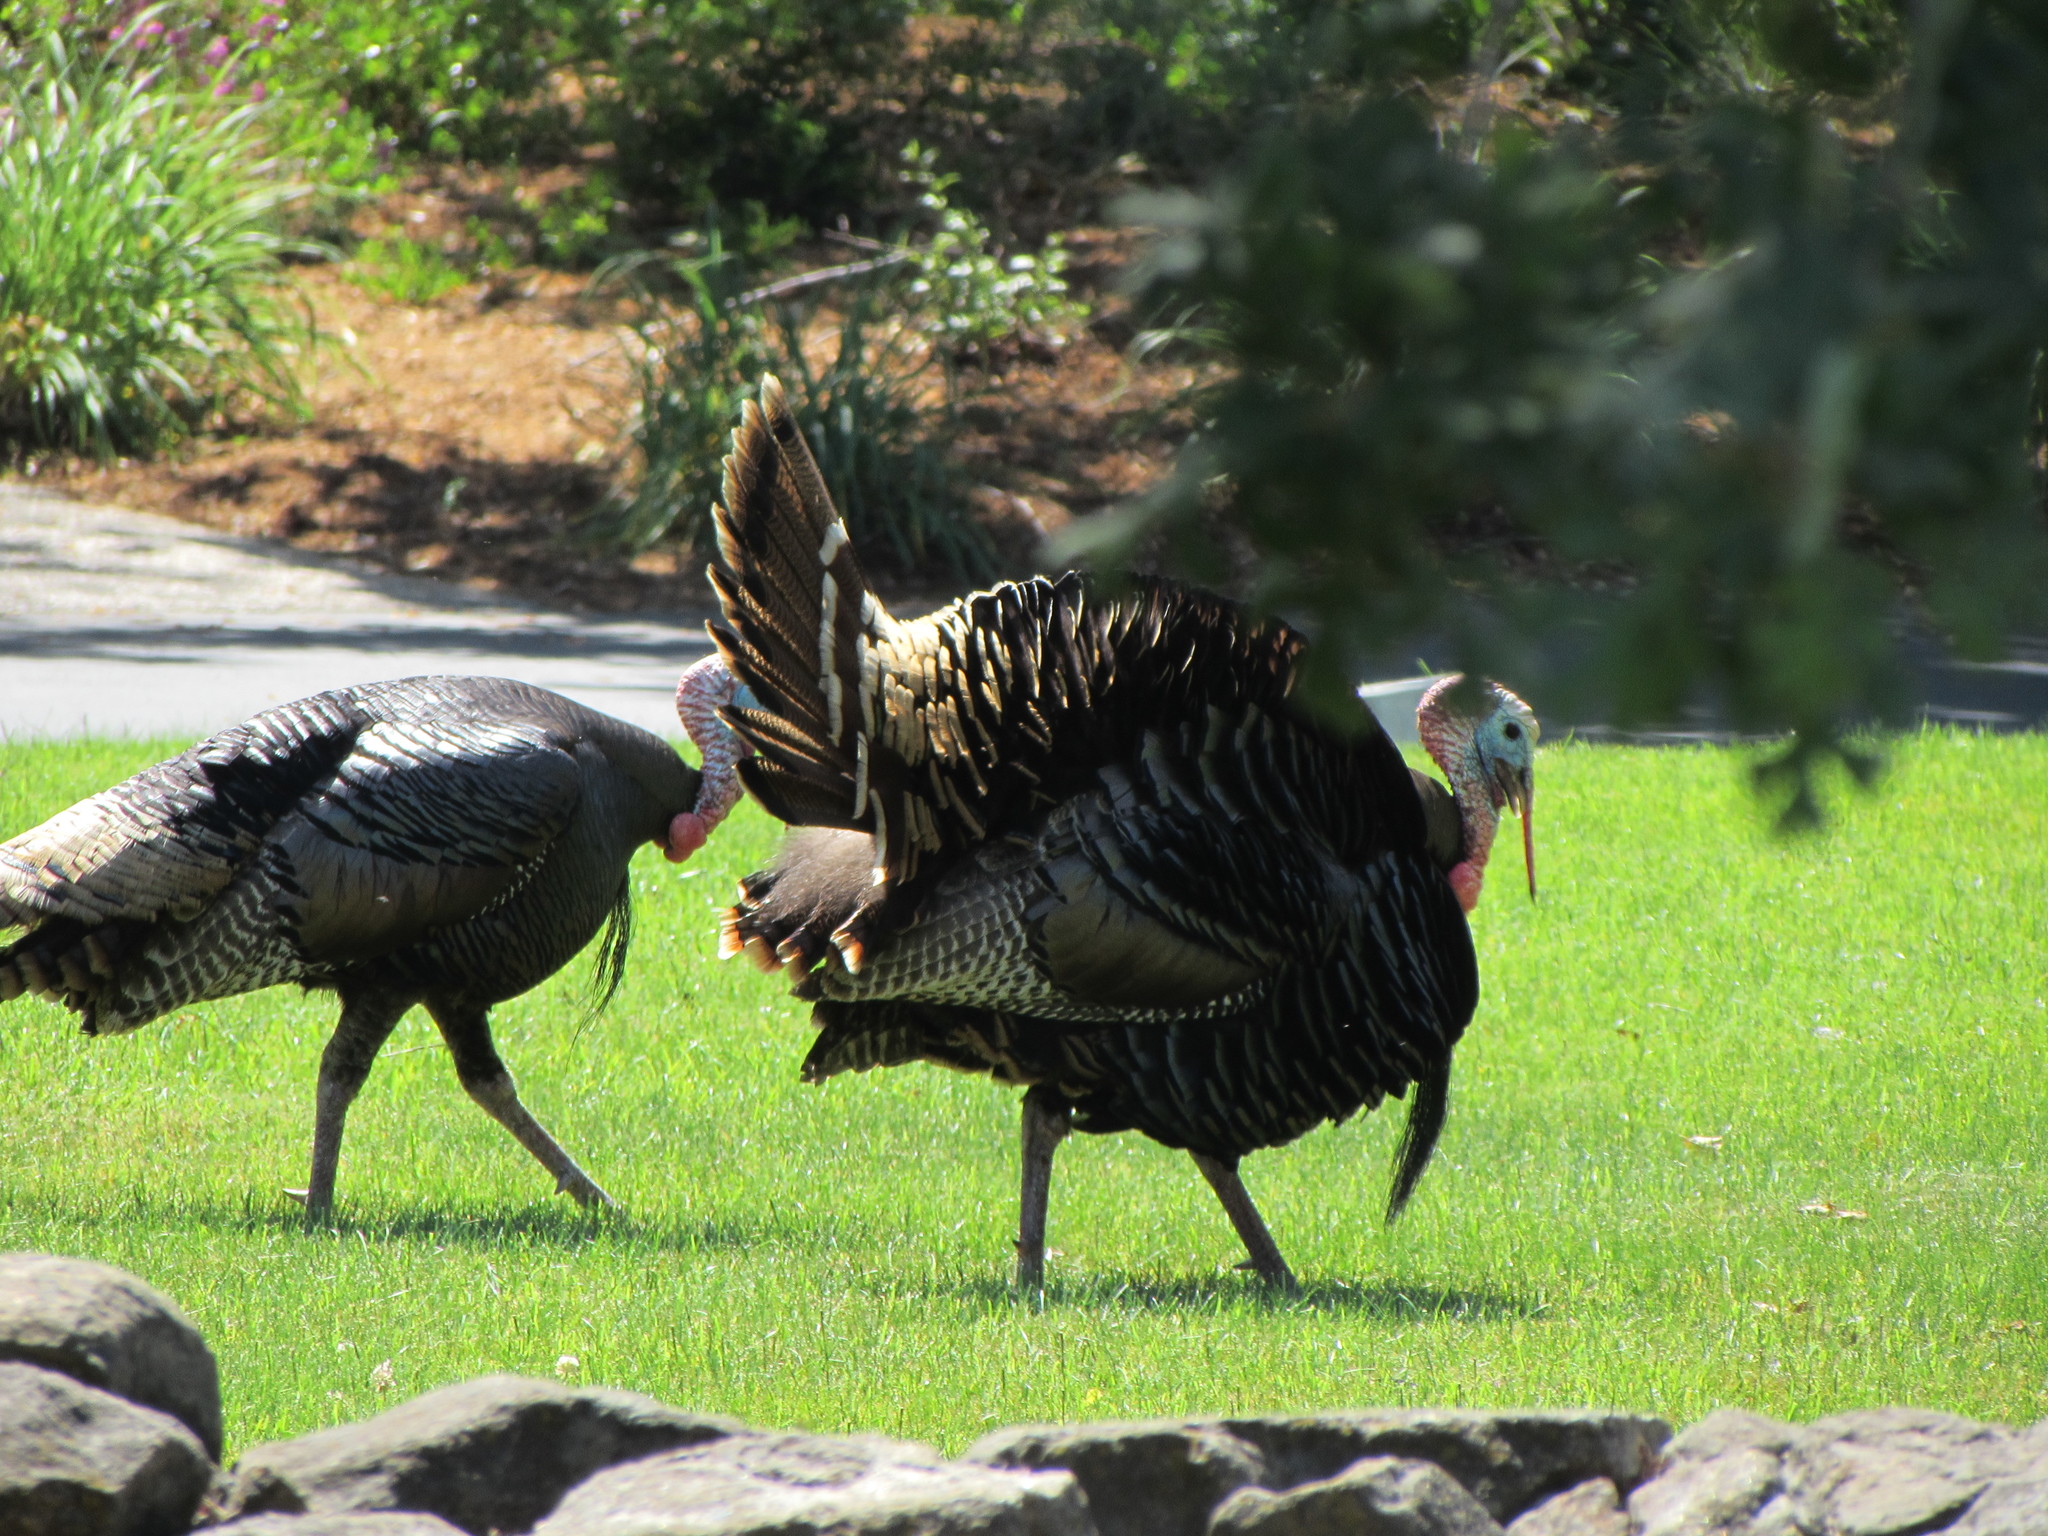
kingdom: Animalia
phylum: Chordata
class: Aves
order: Galliformes
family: Phasianidae
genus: Meleagris
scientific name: Meleagris gallopavo
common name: Wild turkey
